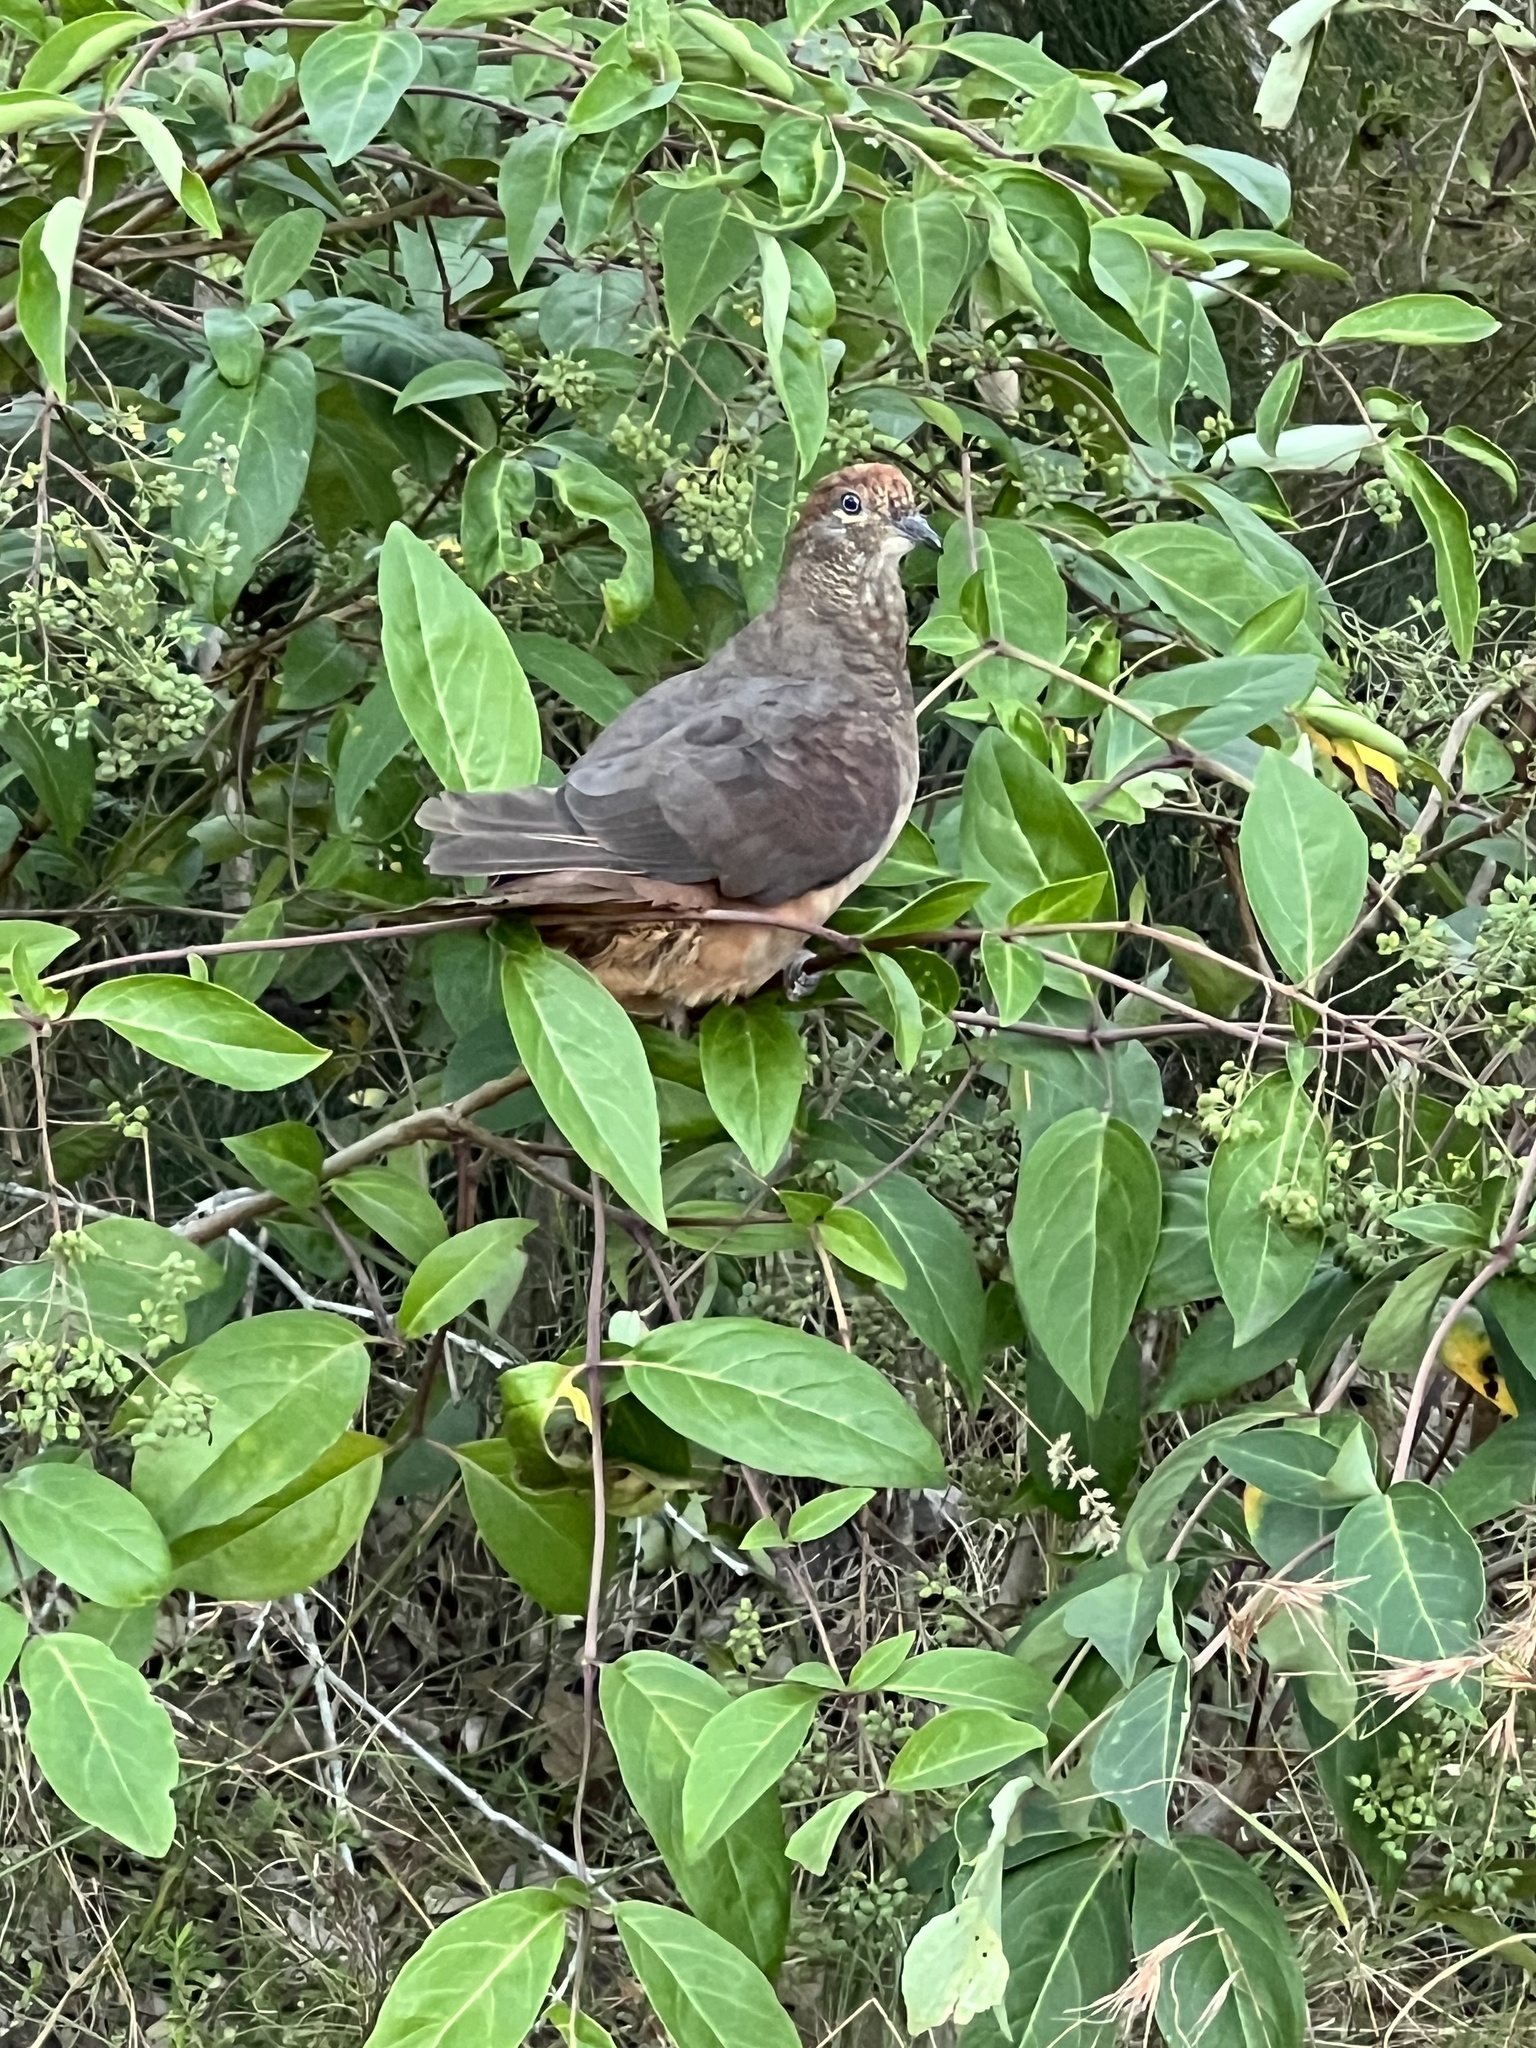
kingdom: Animalia
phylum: Chordata
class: Aves
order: Columbiformes
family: Columbidae
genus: Macropygia
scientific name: Macropygia phasianella
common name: Brown cuckoo-dove
